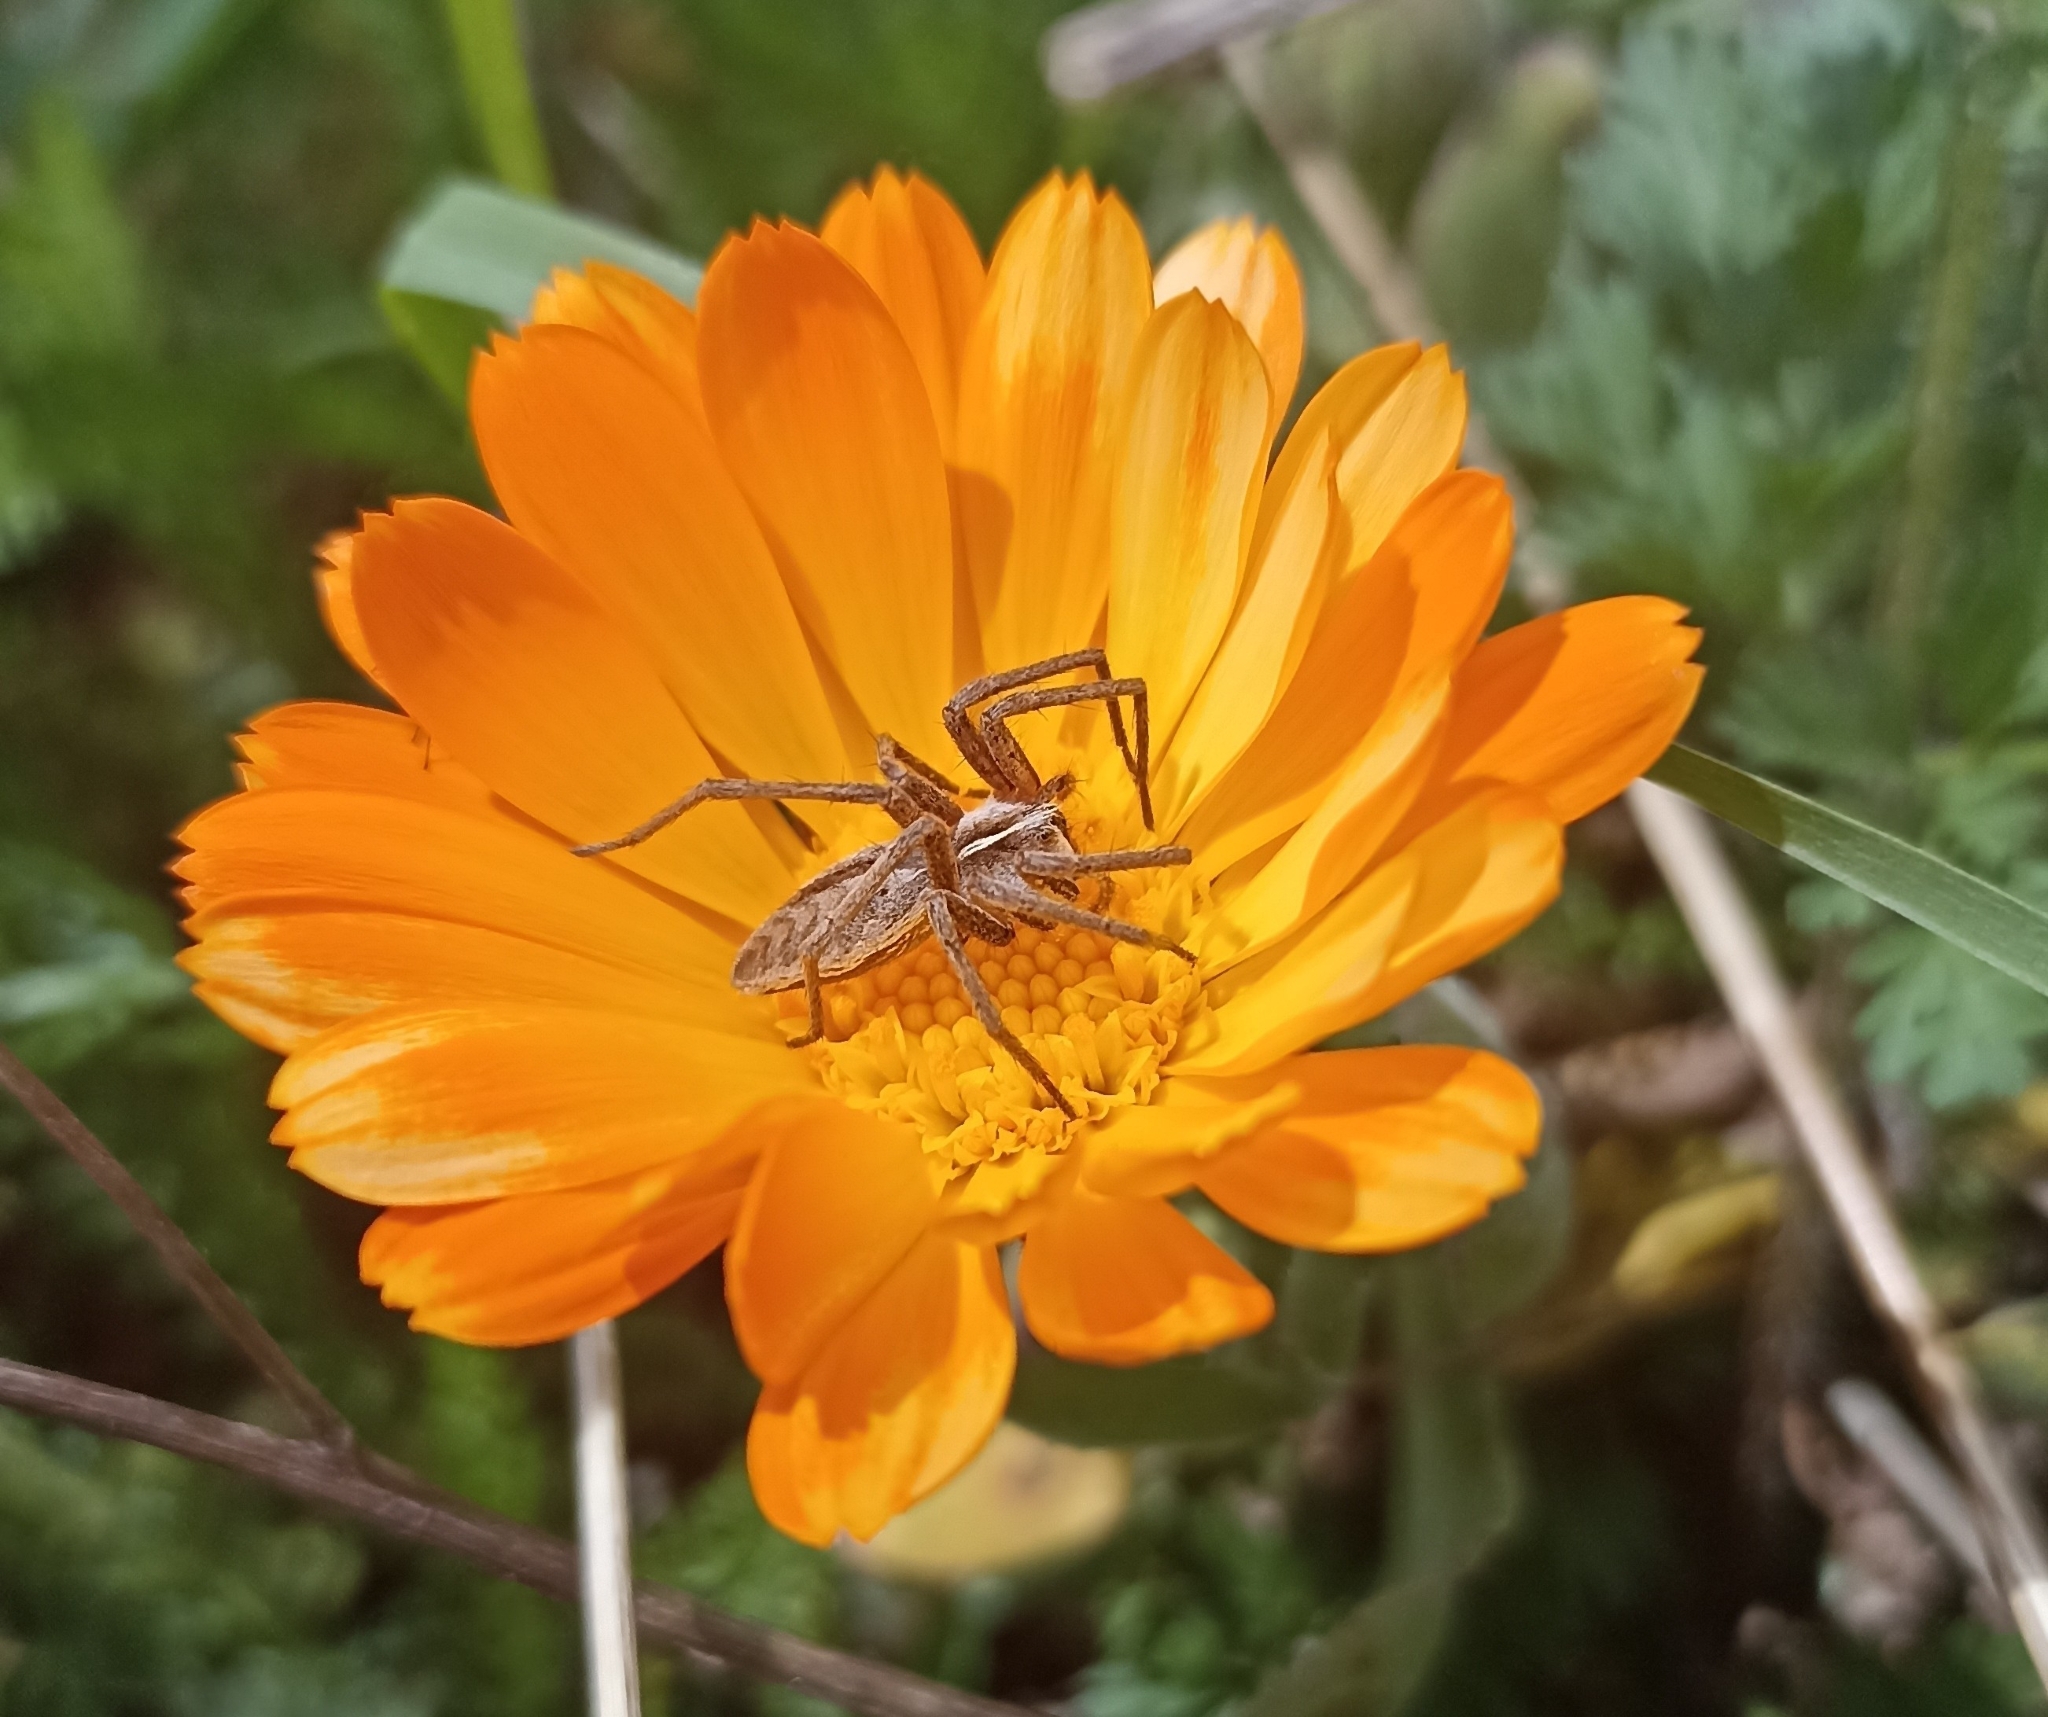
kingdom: Animalia
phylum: Arthropoda
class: Arachnida
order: Araneae
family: Pisauridae
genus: Pisaura
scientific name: Pisaura mirabilis
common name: Tent spider
